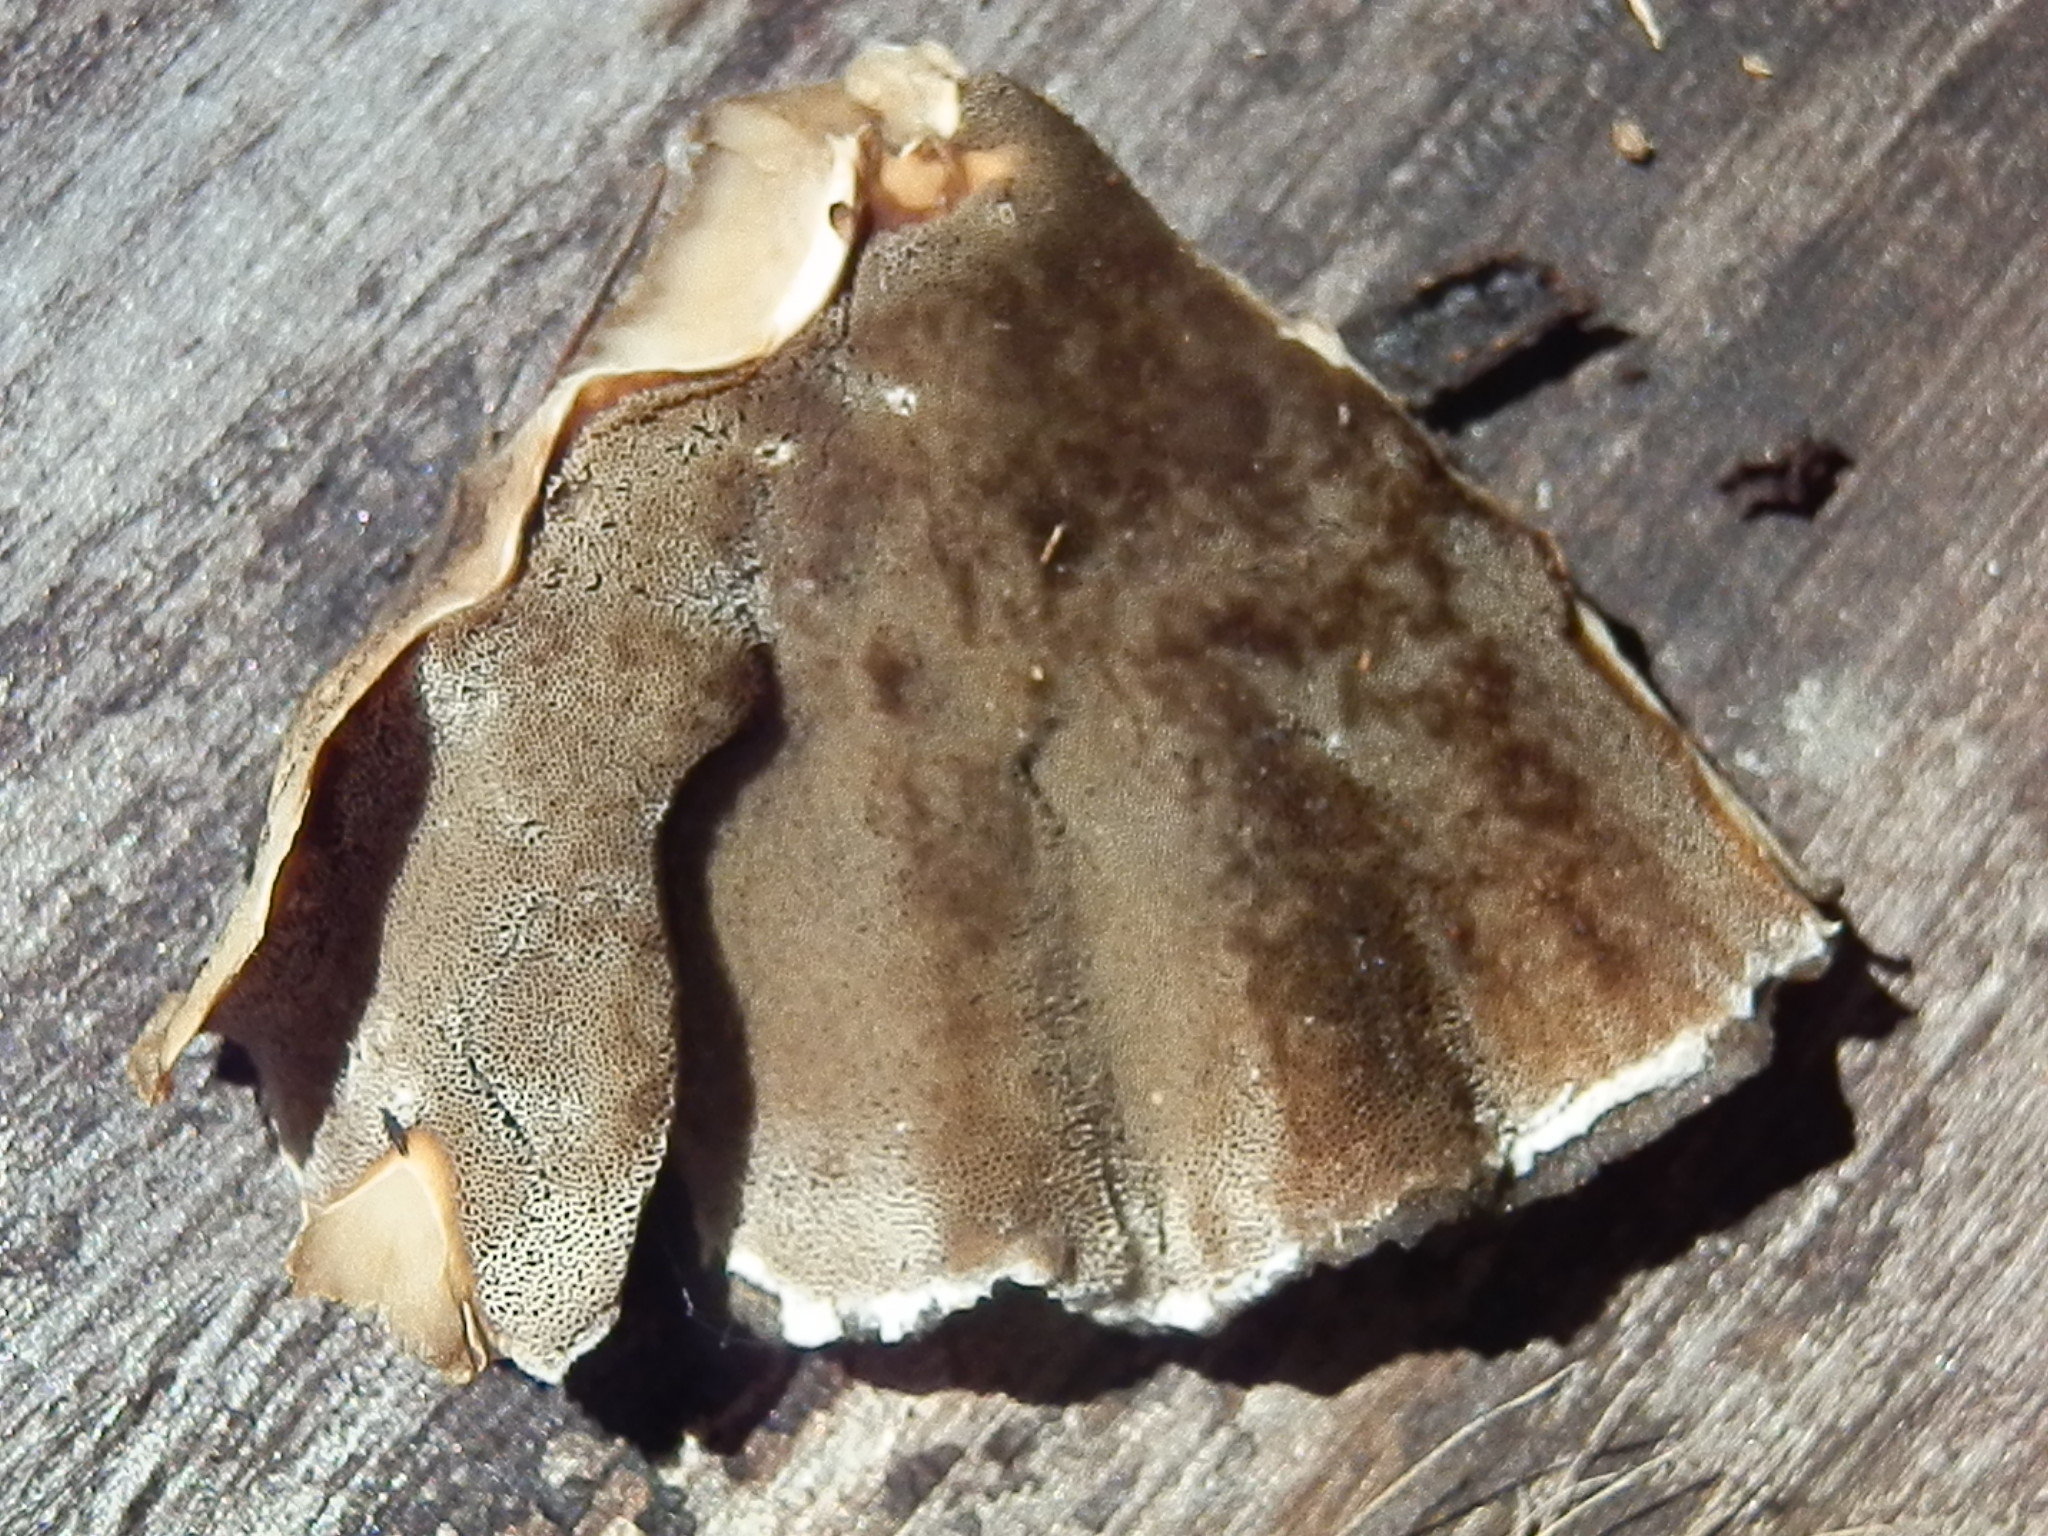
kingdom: Fungi
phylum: Basidiomycota
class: Agaricomycetes
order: Polyporales
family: Phanerochaetaceae
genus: Bjerkandera
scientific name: Bjerkandera adusta
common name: Smoky bracket
